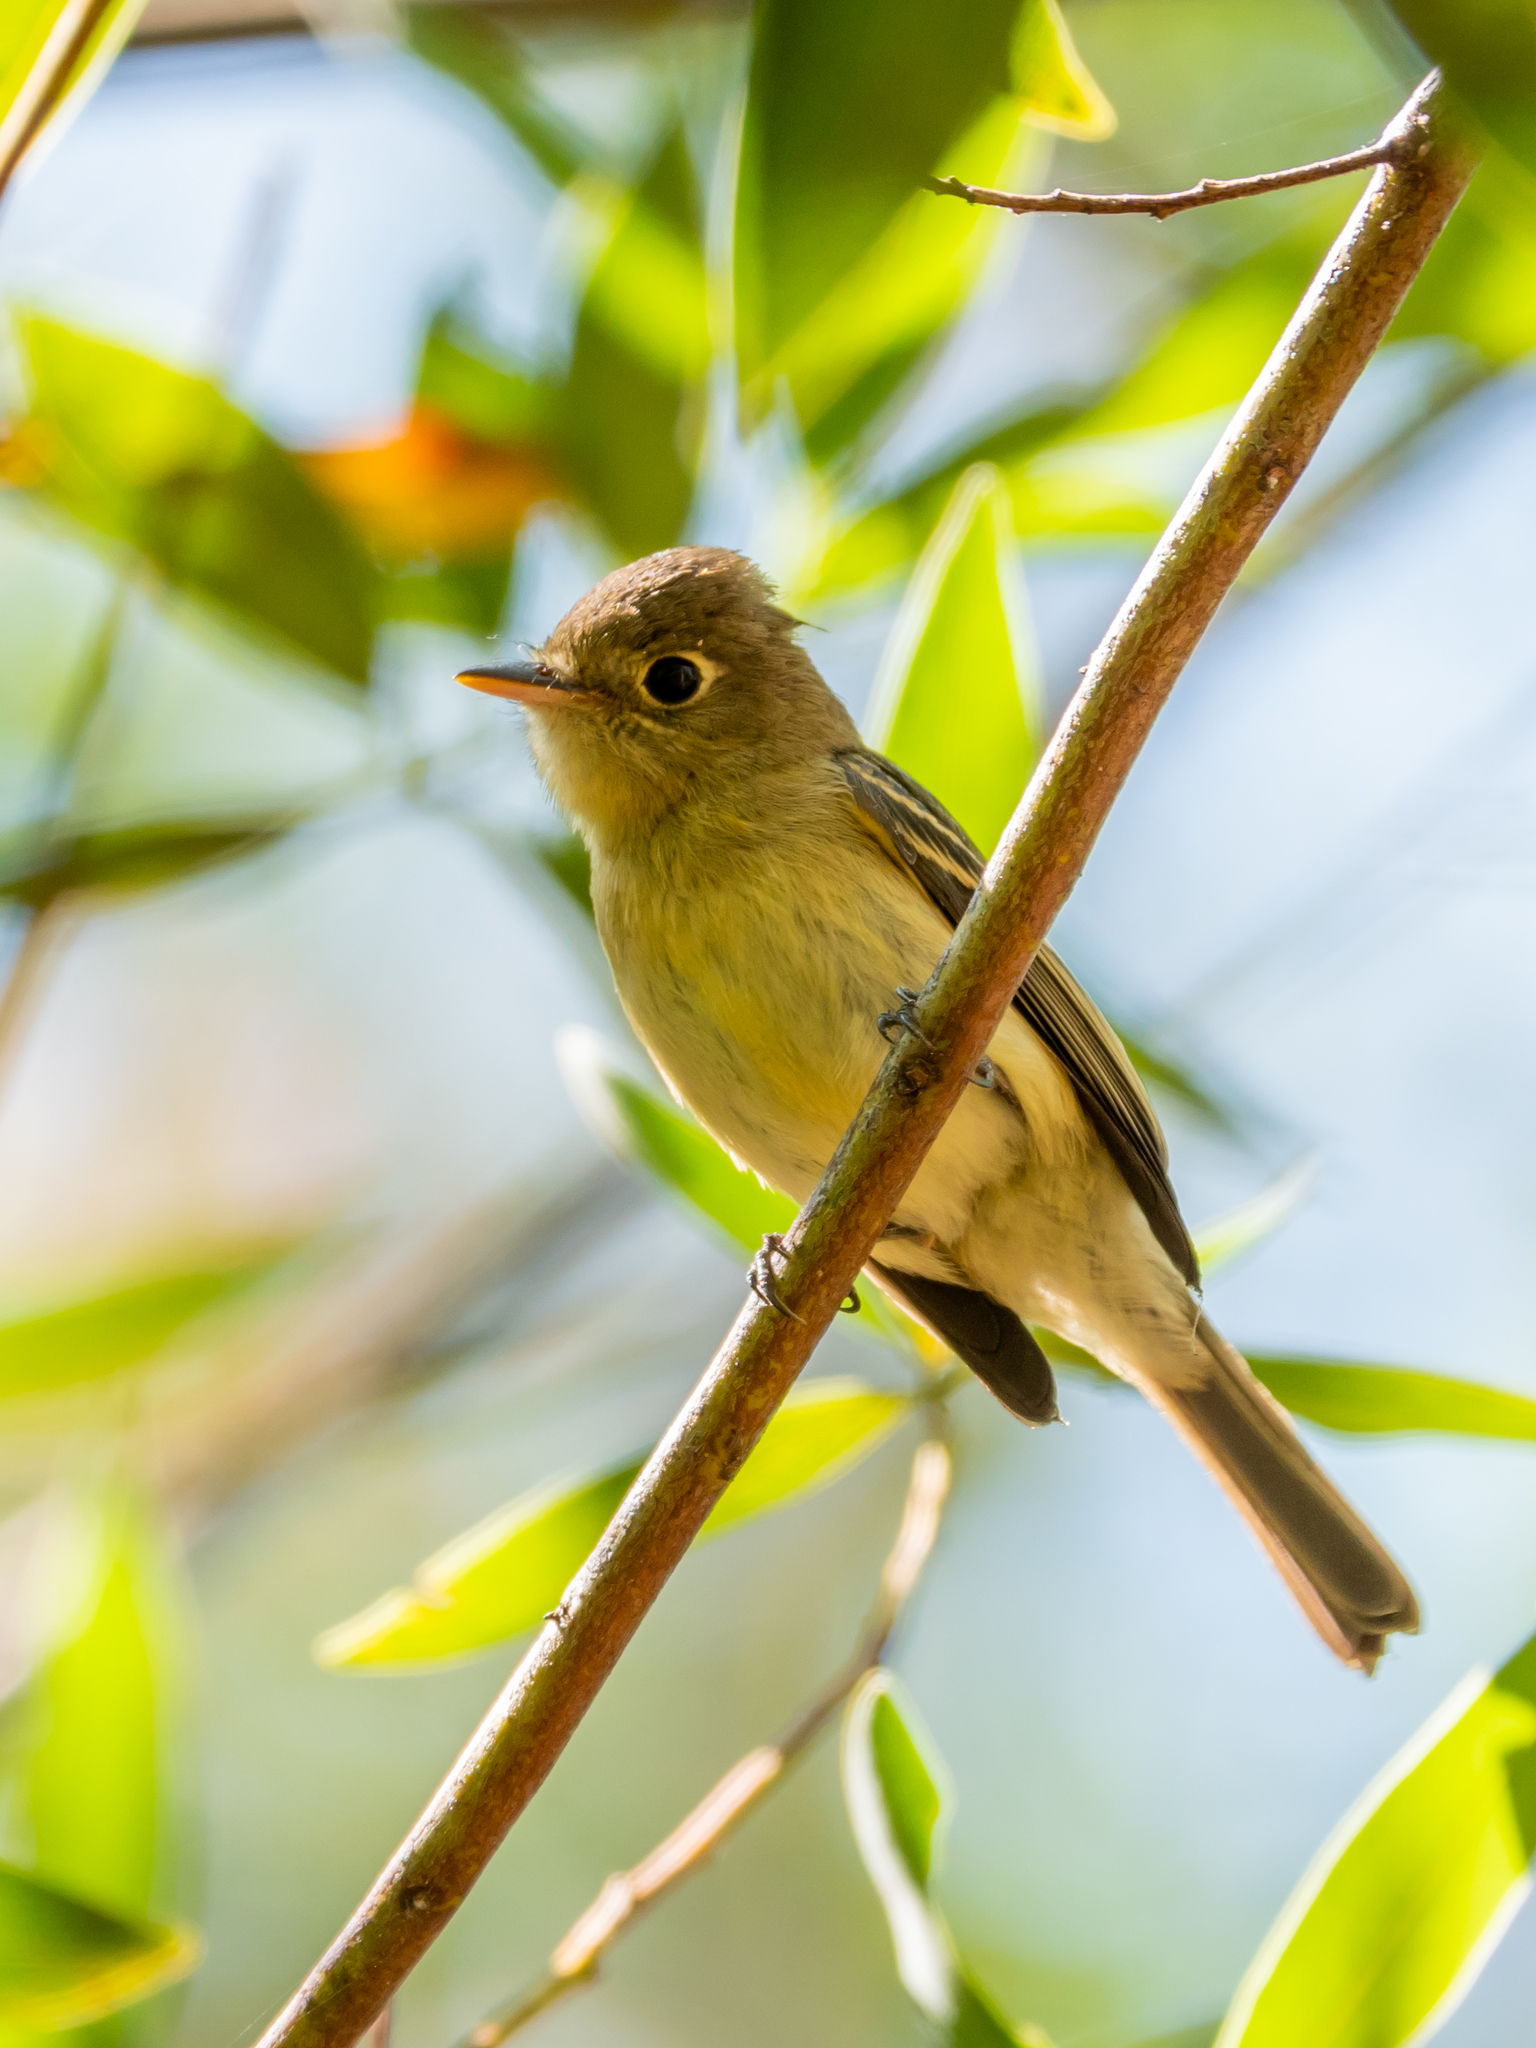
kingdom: Animalia
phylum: Chordata
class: Aves
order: Passeriformes
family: Tyrannidae
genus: Empidonax
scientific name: Empidonax difficilis
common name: Pacific-slope flycatcher
